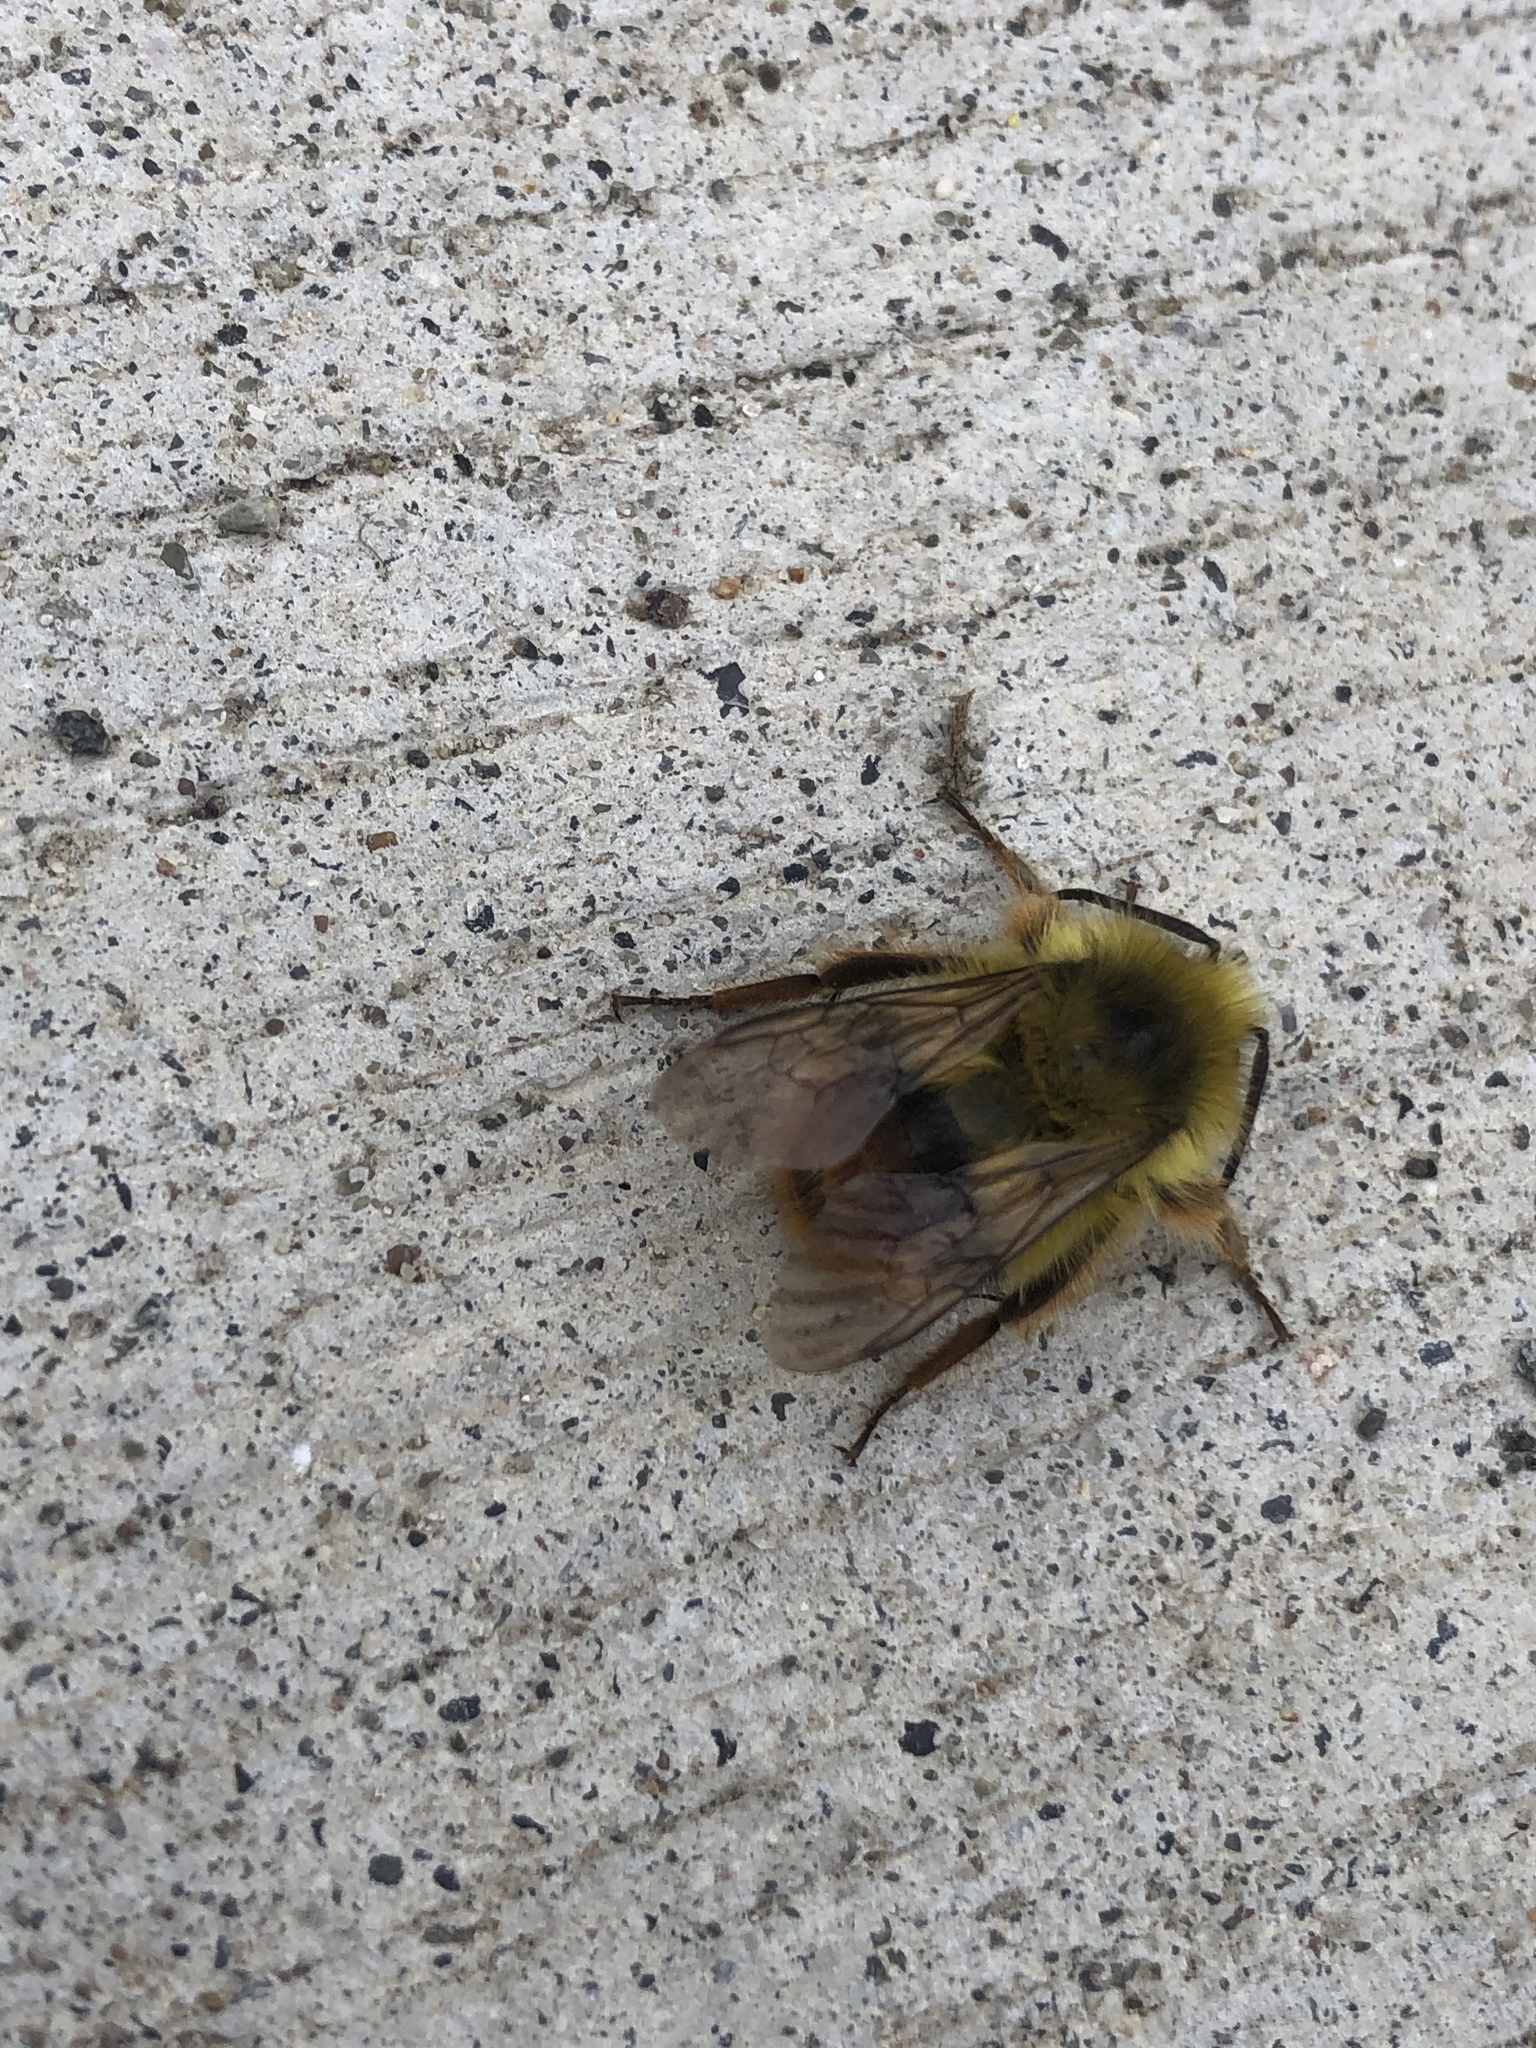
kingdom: Animalia
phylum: Arthropoda
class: Insecta
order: Hymenoptera
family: Apidae
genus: Bombus
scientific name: Bombus mixtus
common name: Fuzzy-horned bumble bee
